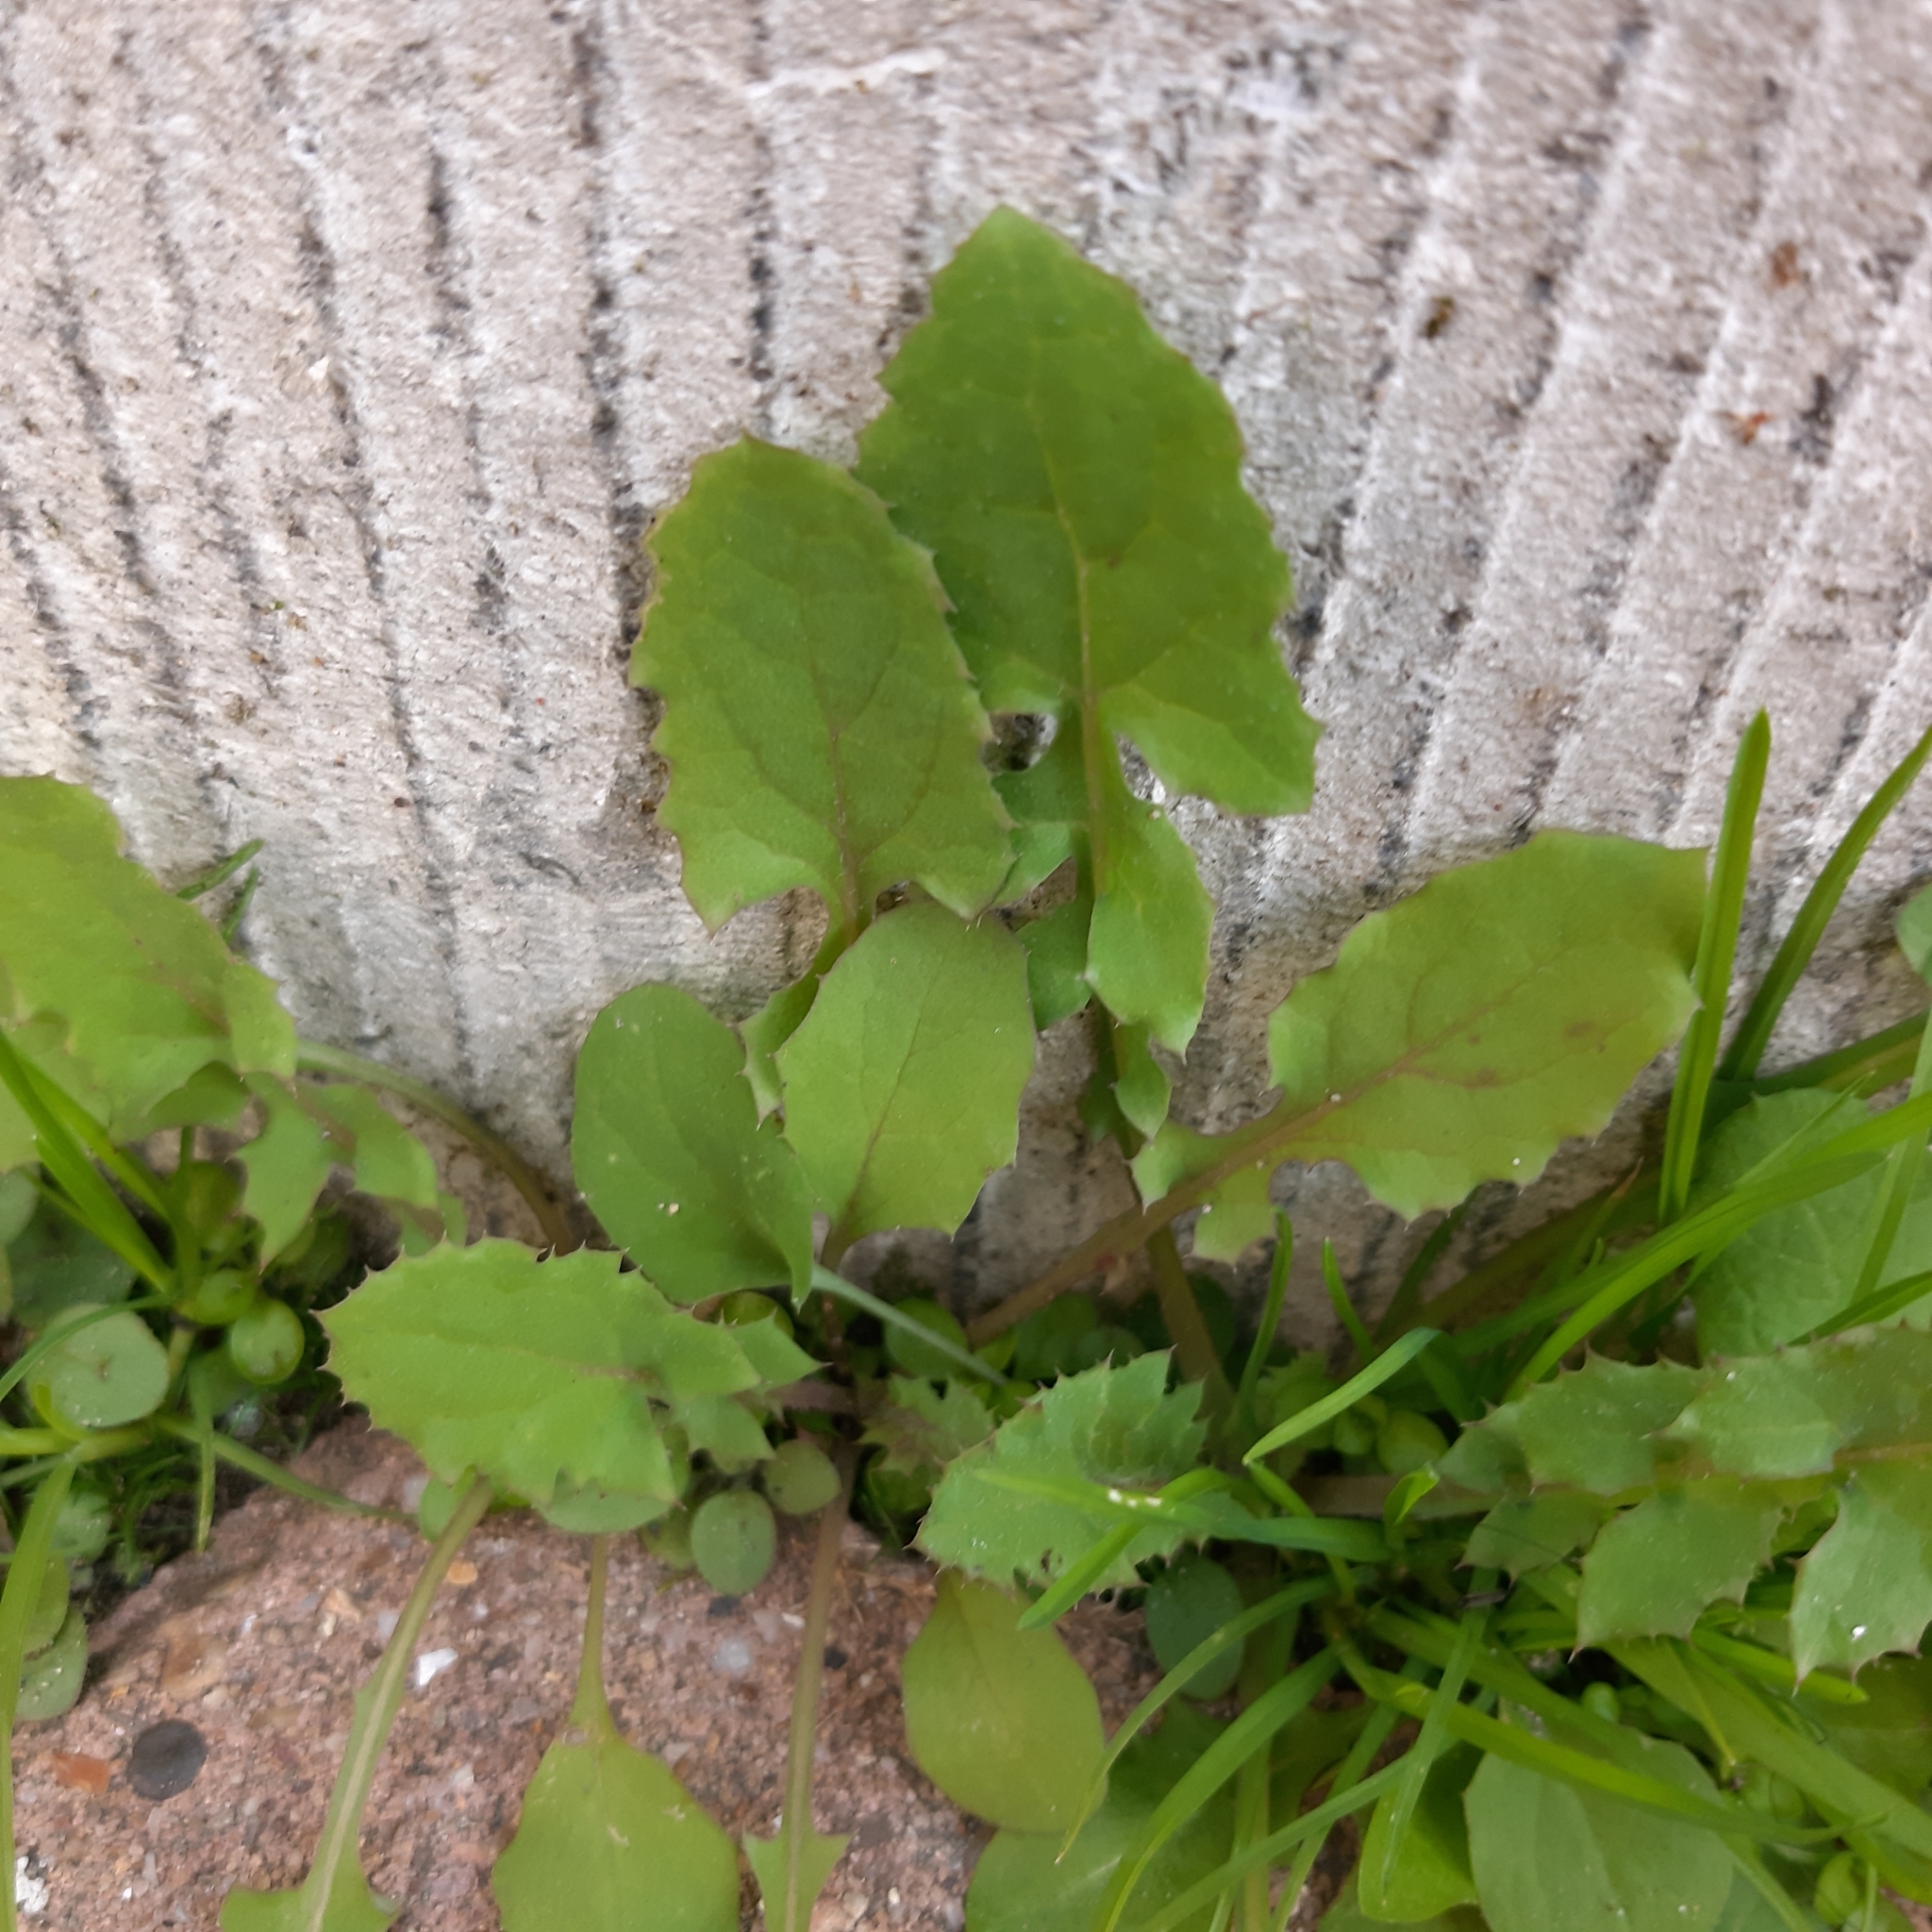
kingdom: Plantae
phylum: Tracheophyta
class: Magnoliopsida
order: Asterales
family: Asteraceae
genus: Sonchus
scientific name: Sonchus oleraceus
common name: Common sowthistle
